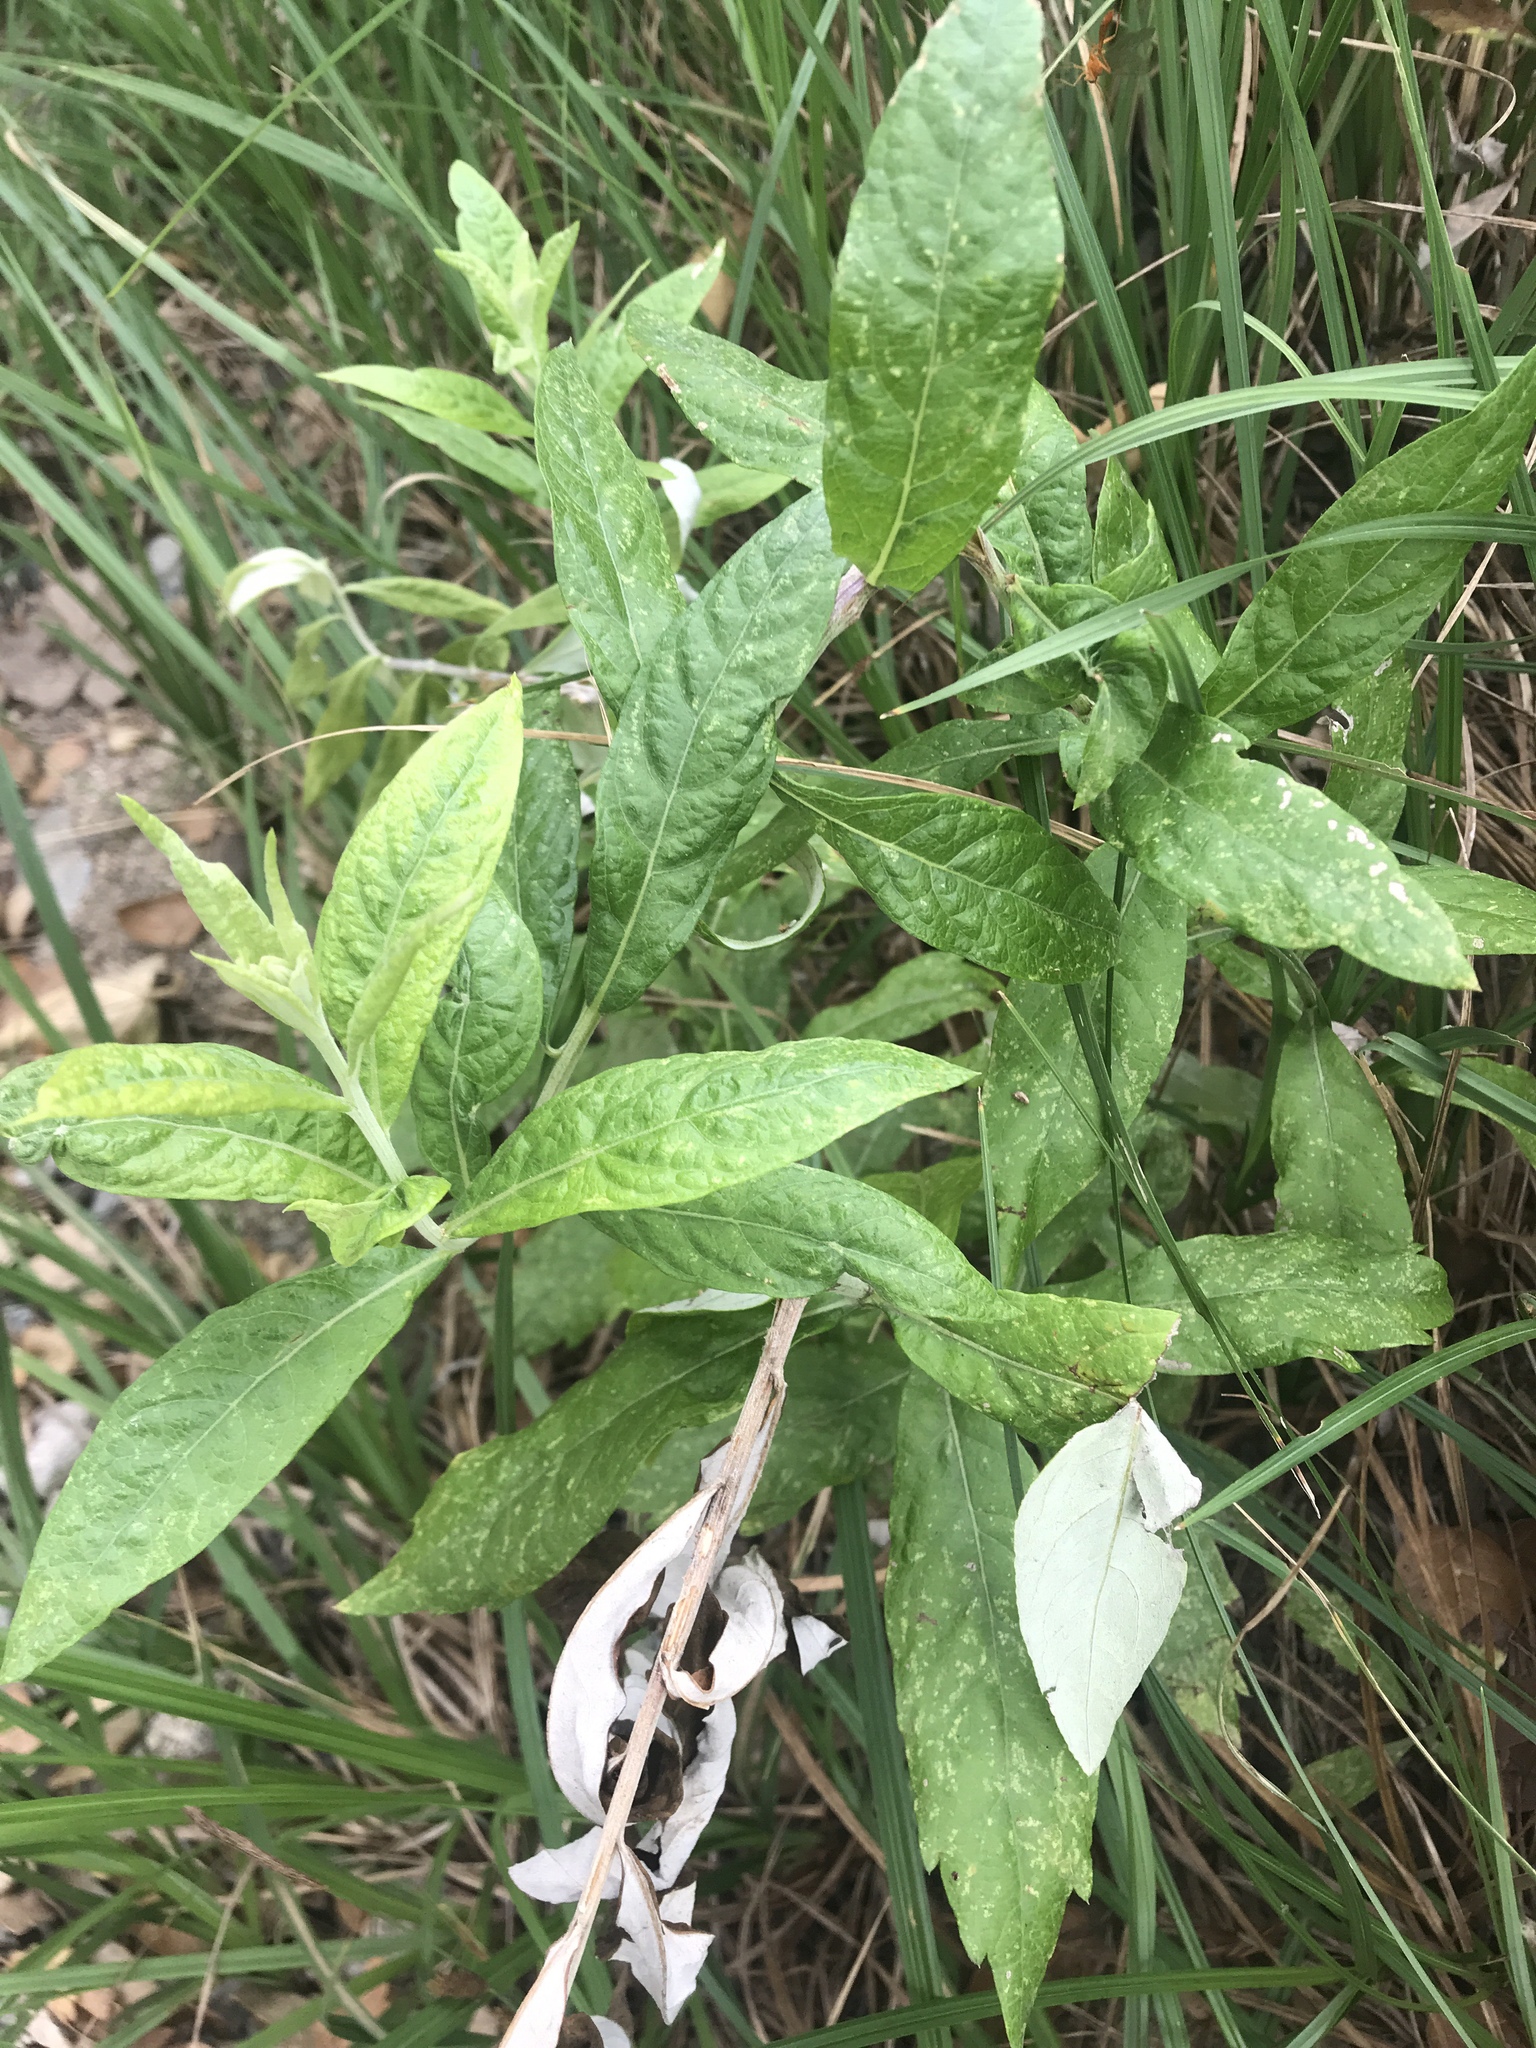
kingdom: Plantae
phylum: Tracheophyta
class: Magnoliopsida
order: Asterales
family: Asteraceae
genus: Artemisia
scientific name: Artemisia douglasiana
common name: Northwest mugwort
